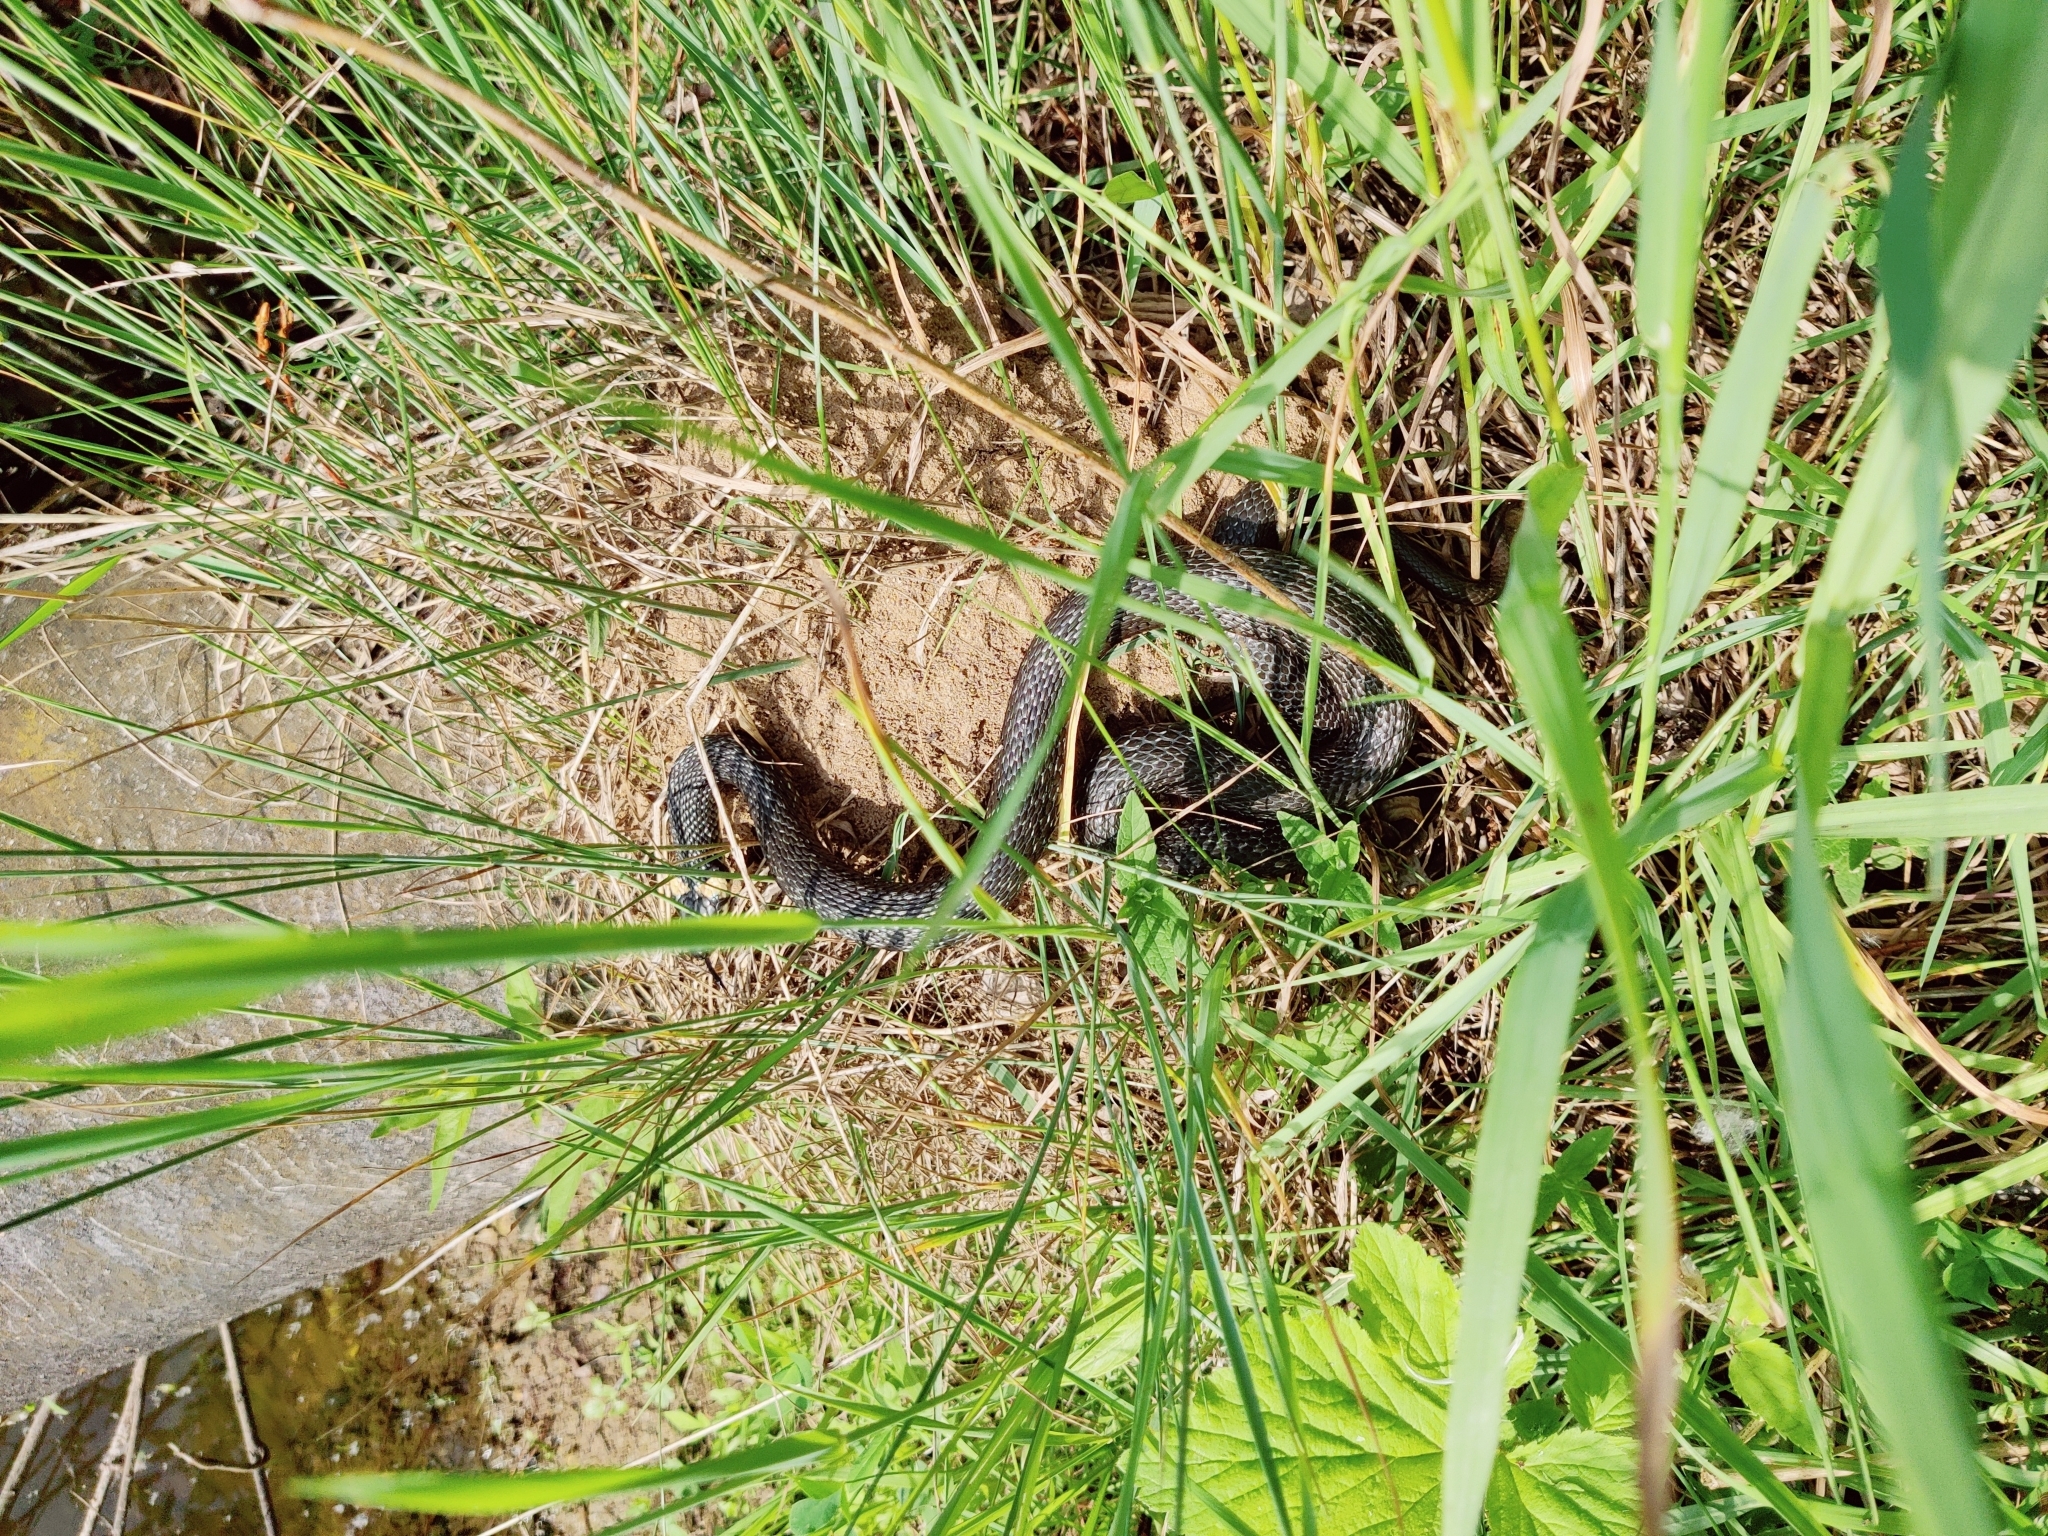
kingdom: Animalia
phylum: Chordata
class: Squamata
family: Colubridae
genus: Natrix
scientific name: Natrix natrix
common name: Grass snake
